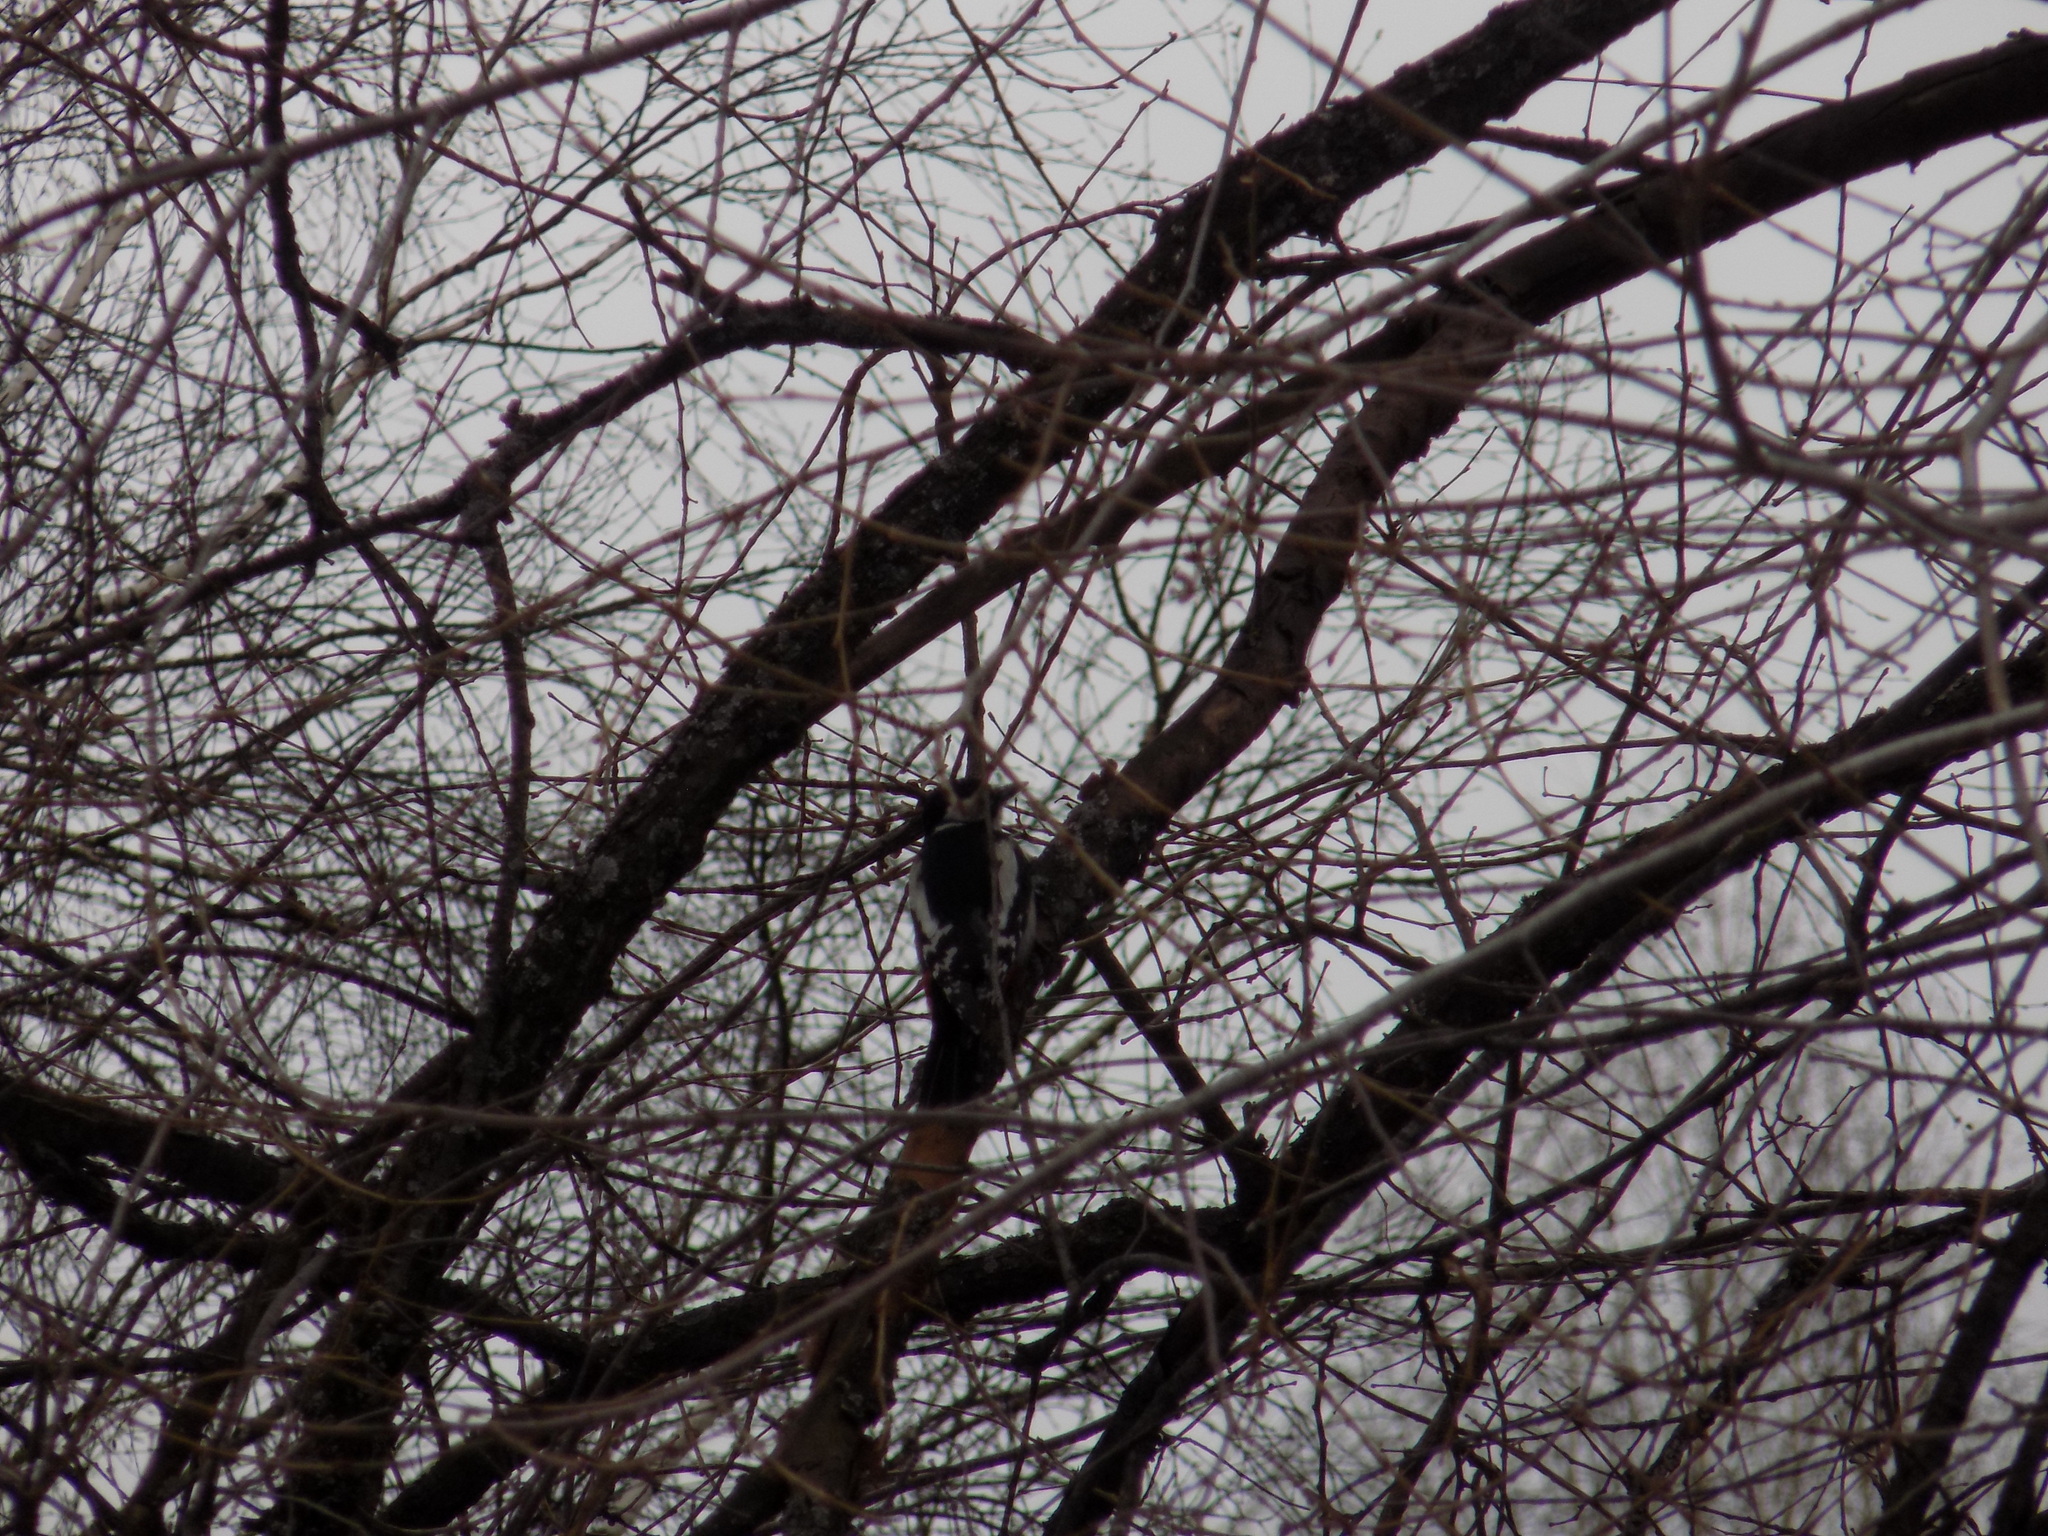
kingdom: Animalia
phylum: Chordata
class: Aves
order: Piciformes
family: Picidae
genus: Dendrocopos
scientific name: Dendrocopos major
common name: Great spotted woodpecker
